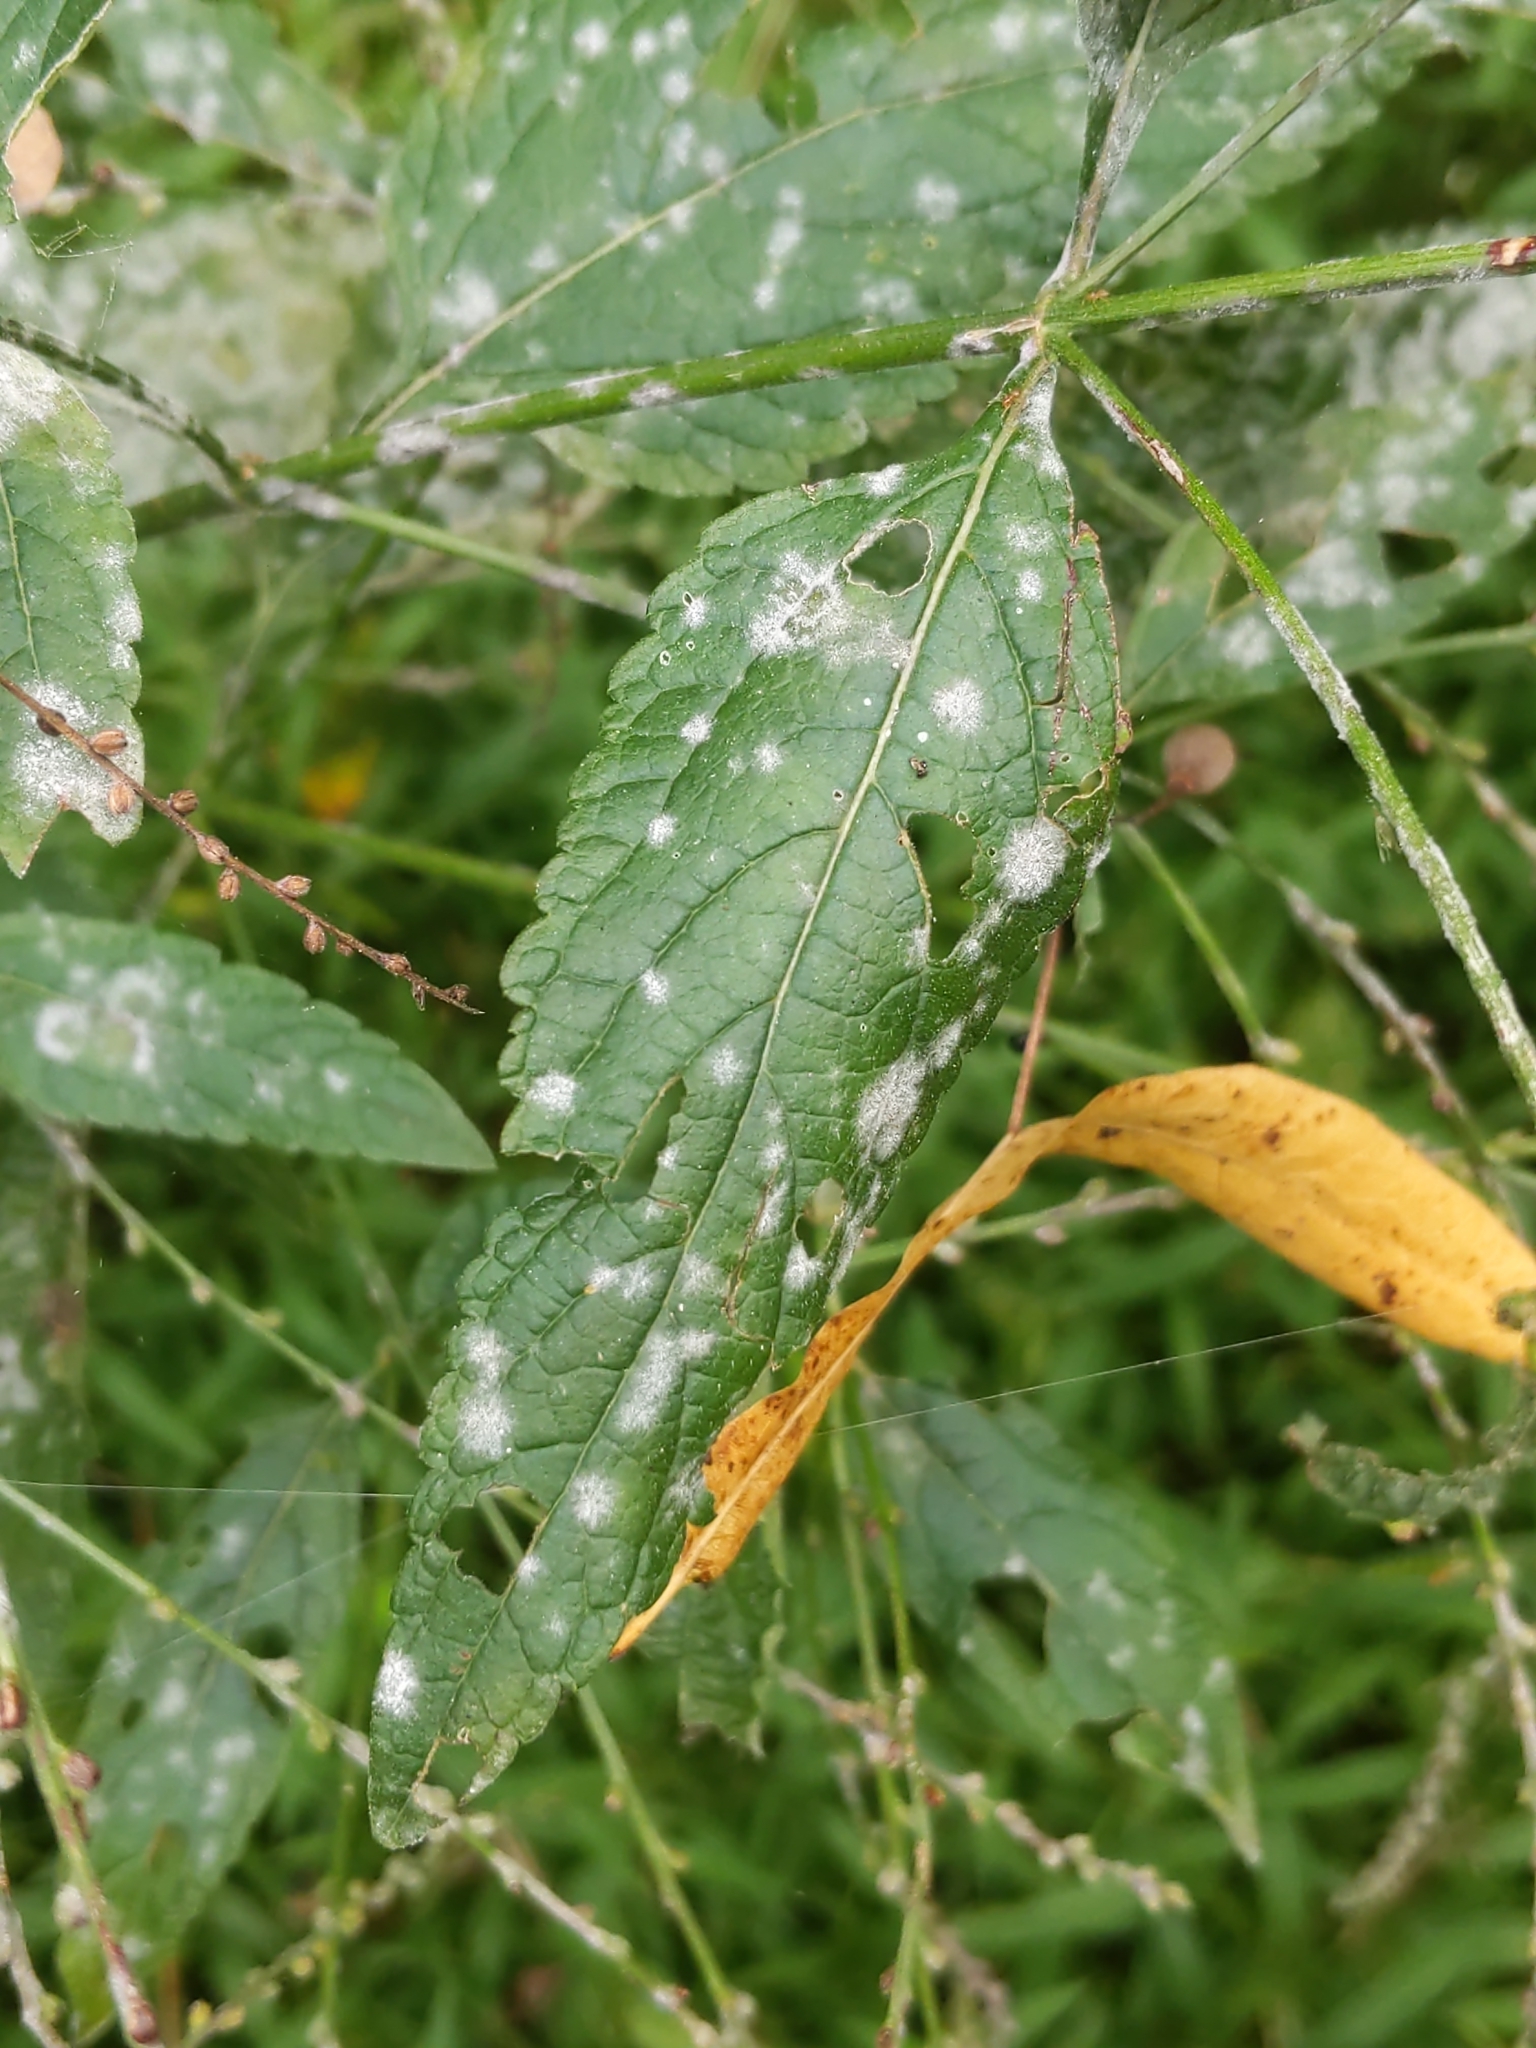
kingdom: Plantae
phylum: Tracheophyta
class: Magnoliopsida
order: Lamiales
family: Verbenaceae
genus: Verbena
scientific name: Verbena urticifolia
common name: Nettle-leaved vervain
